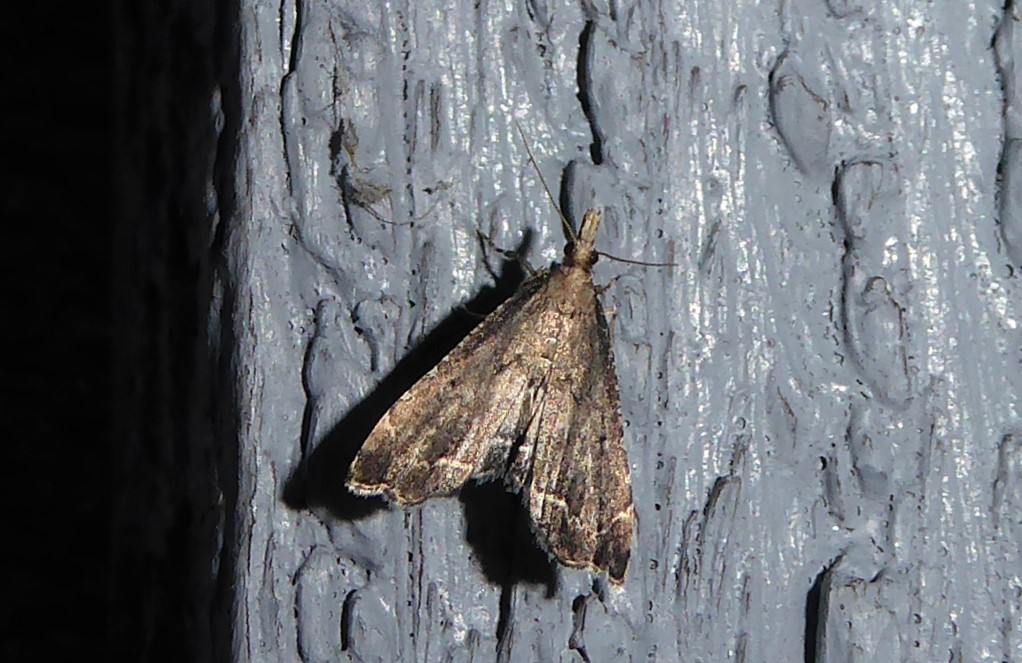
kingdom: Animalia
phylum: Arthropoda
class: Insecta
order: Lepidoptera
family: Crambidae
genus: Diplopseustis
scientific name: Diplopseustis perieresalis
